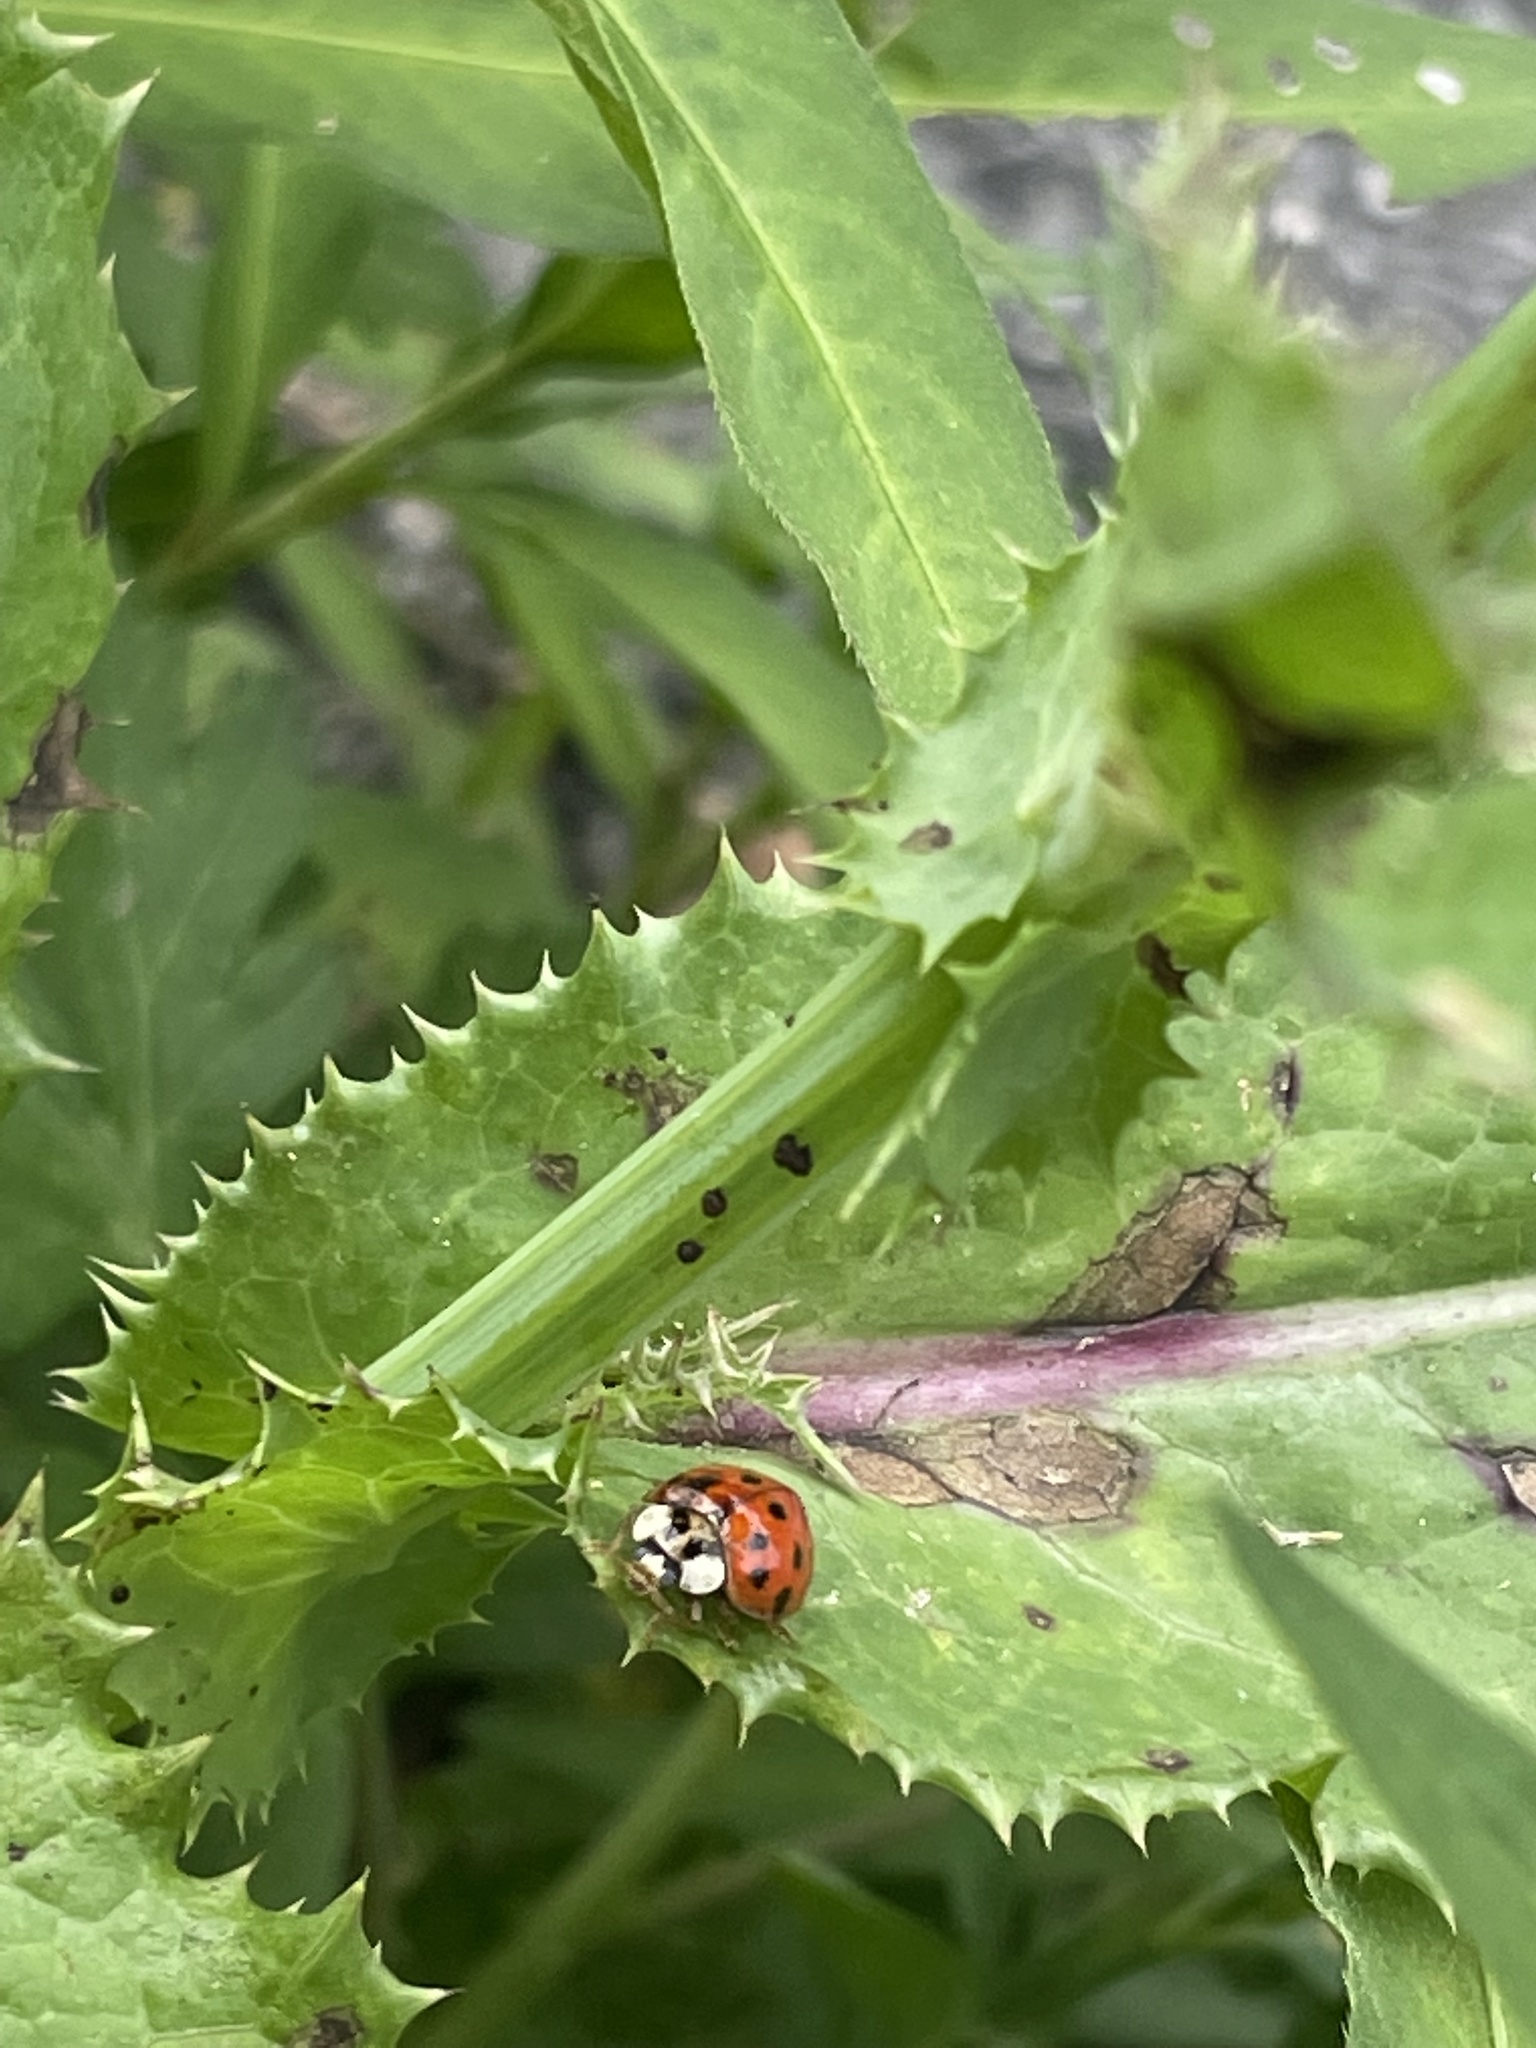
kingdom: Animalia
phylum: Arthropoda
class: Insecta
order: Coleoptera
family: Coccinellidae
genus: Harmonia
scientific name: Harmonia axyridis
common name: Harlequin ladybird
